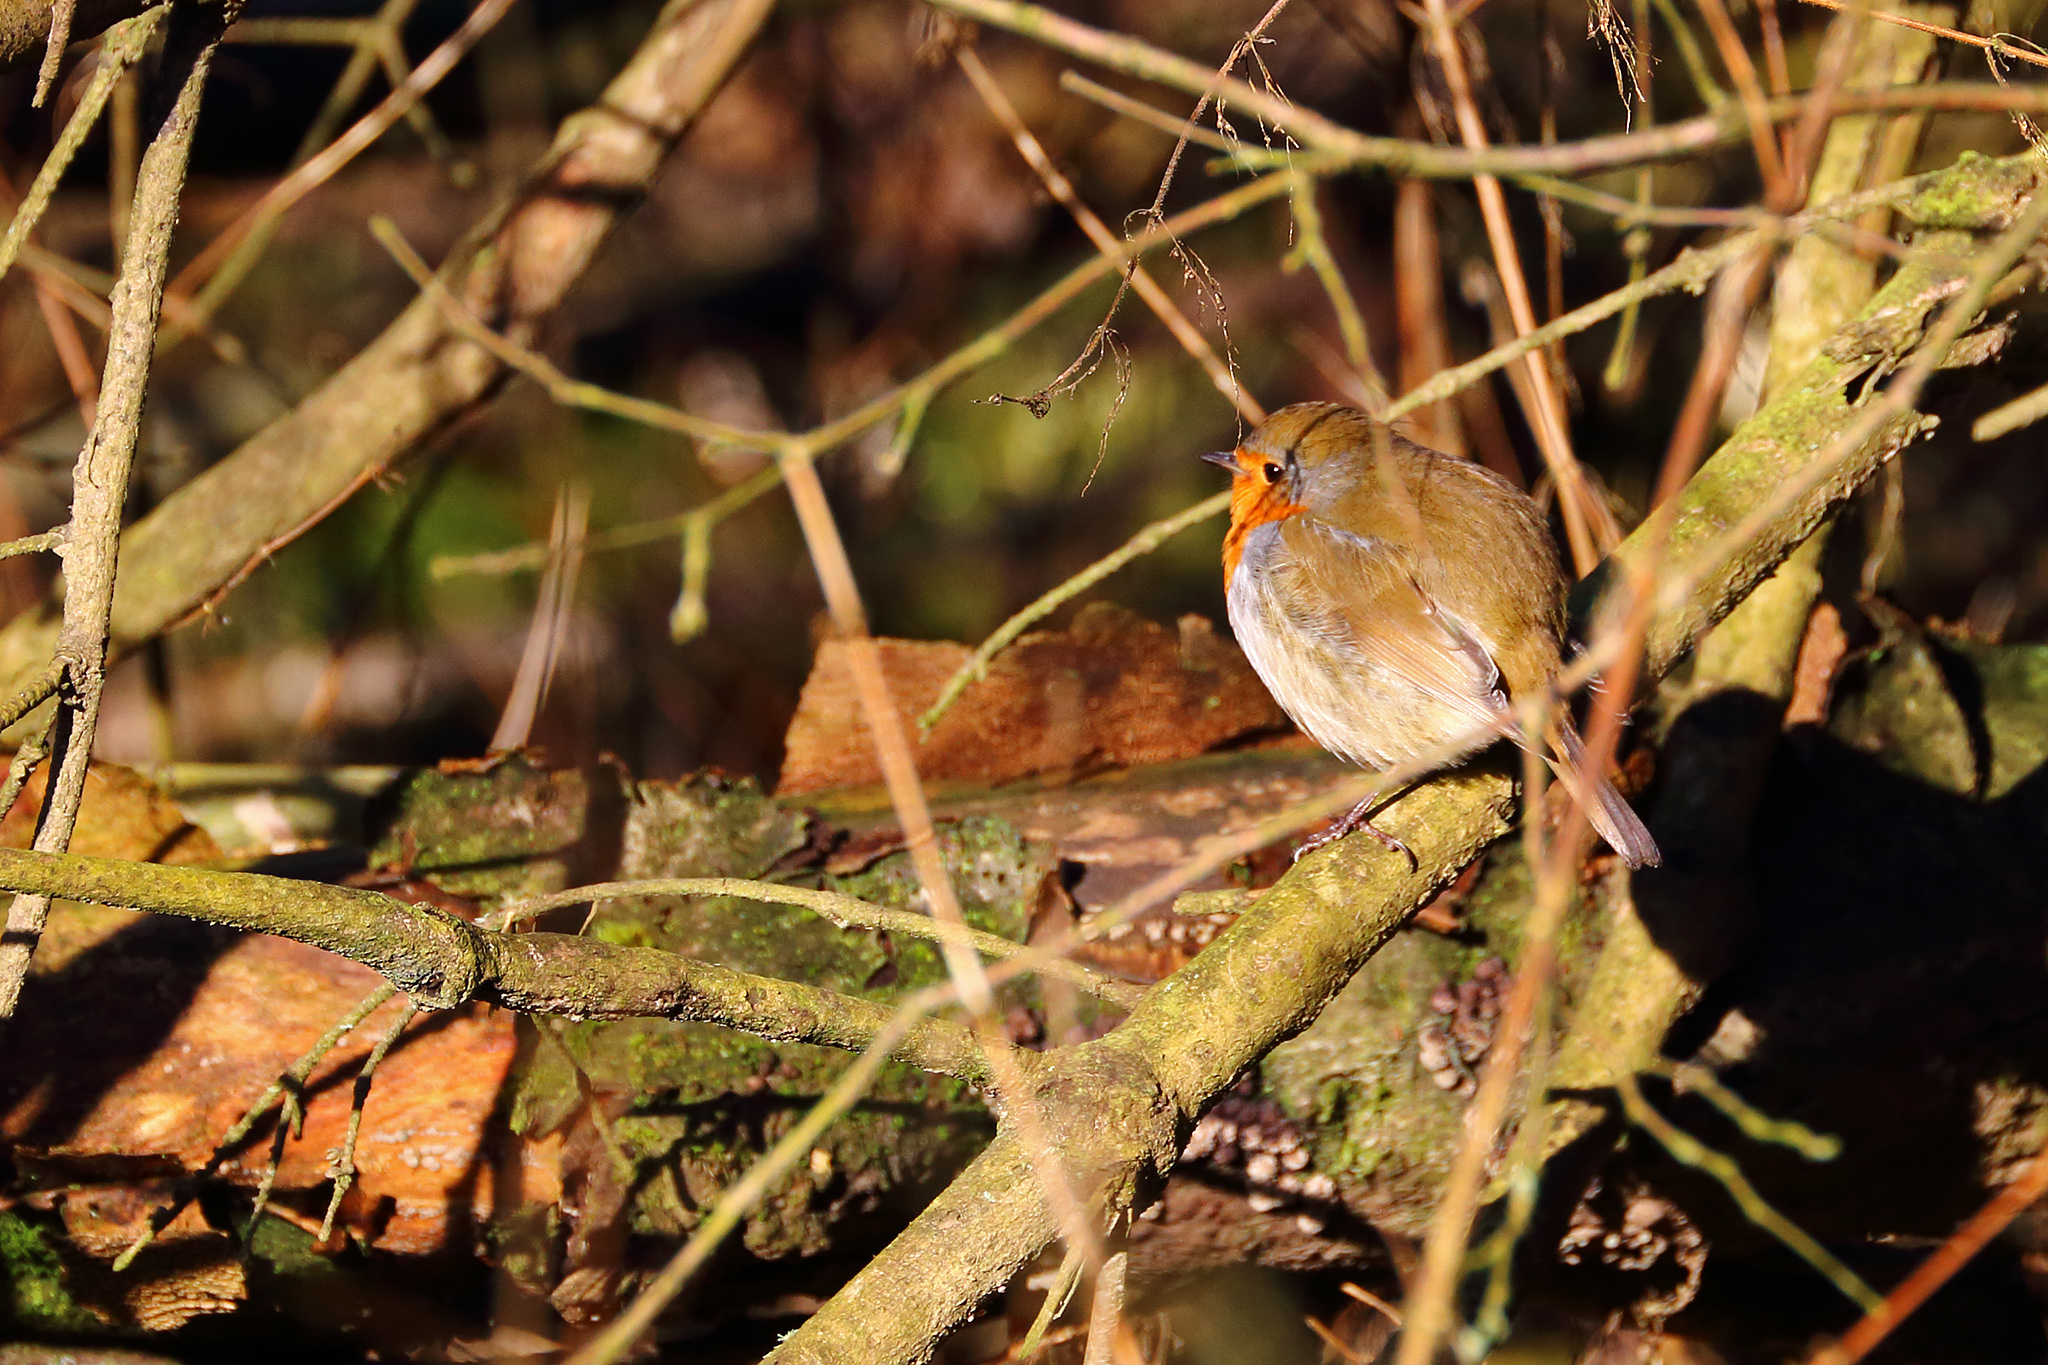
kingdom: Animalia
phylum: Chordata
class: Aves
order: Passeriformes
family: Muscicapidae
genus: Erithacus
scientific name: Erithacus rubecula
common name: European robin
